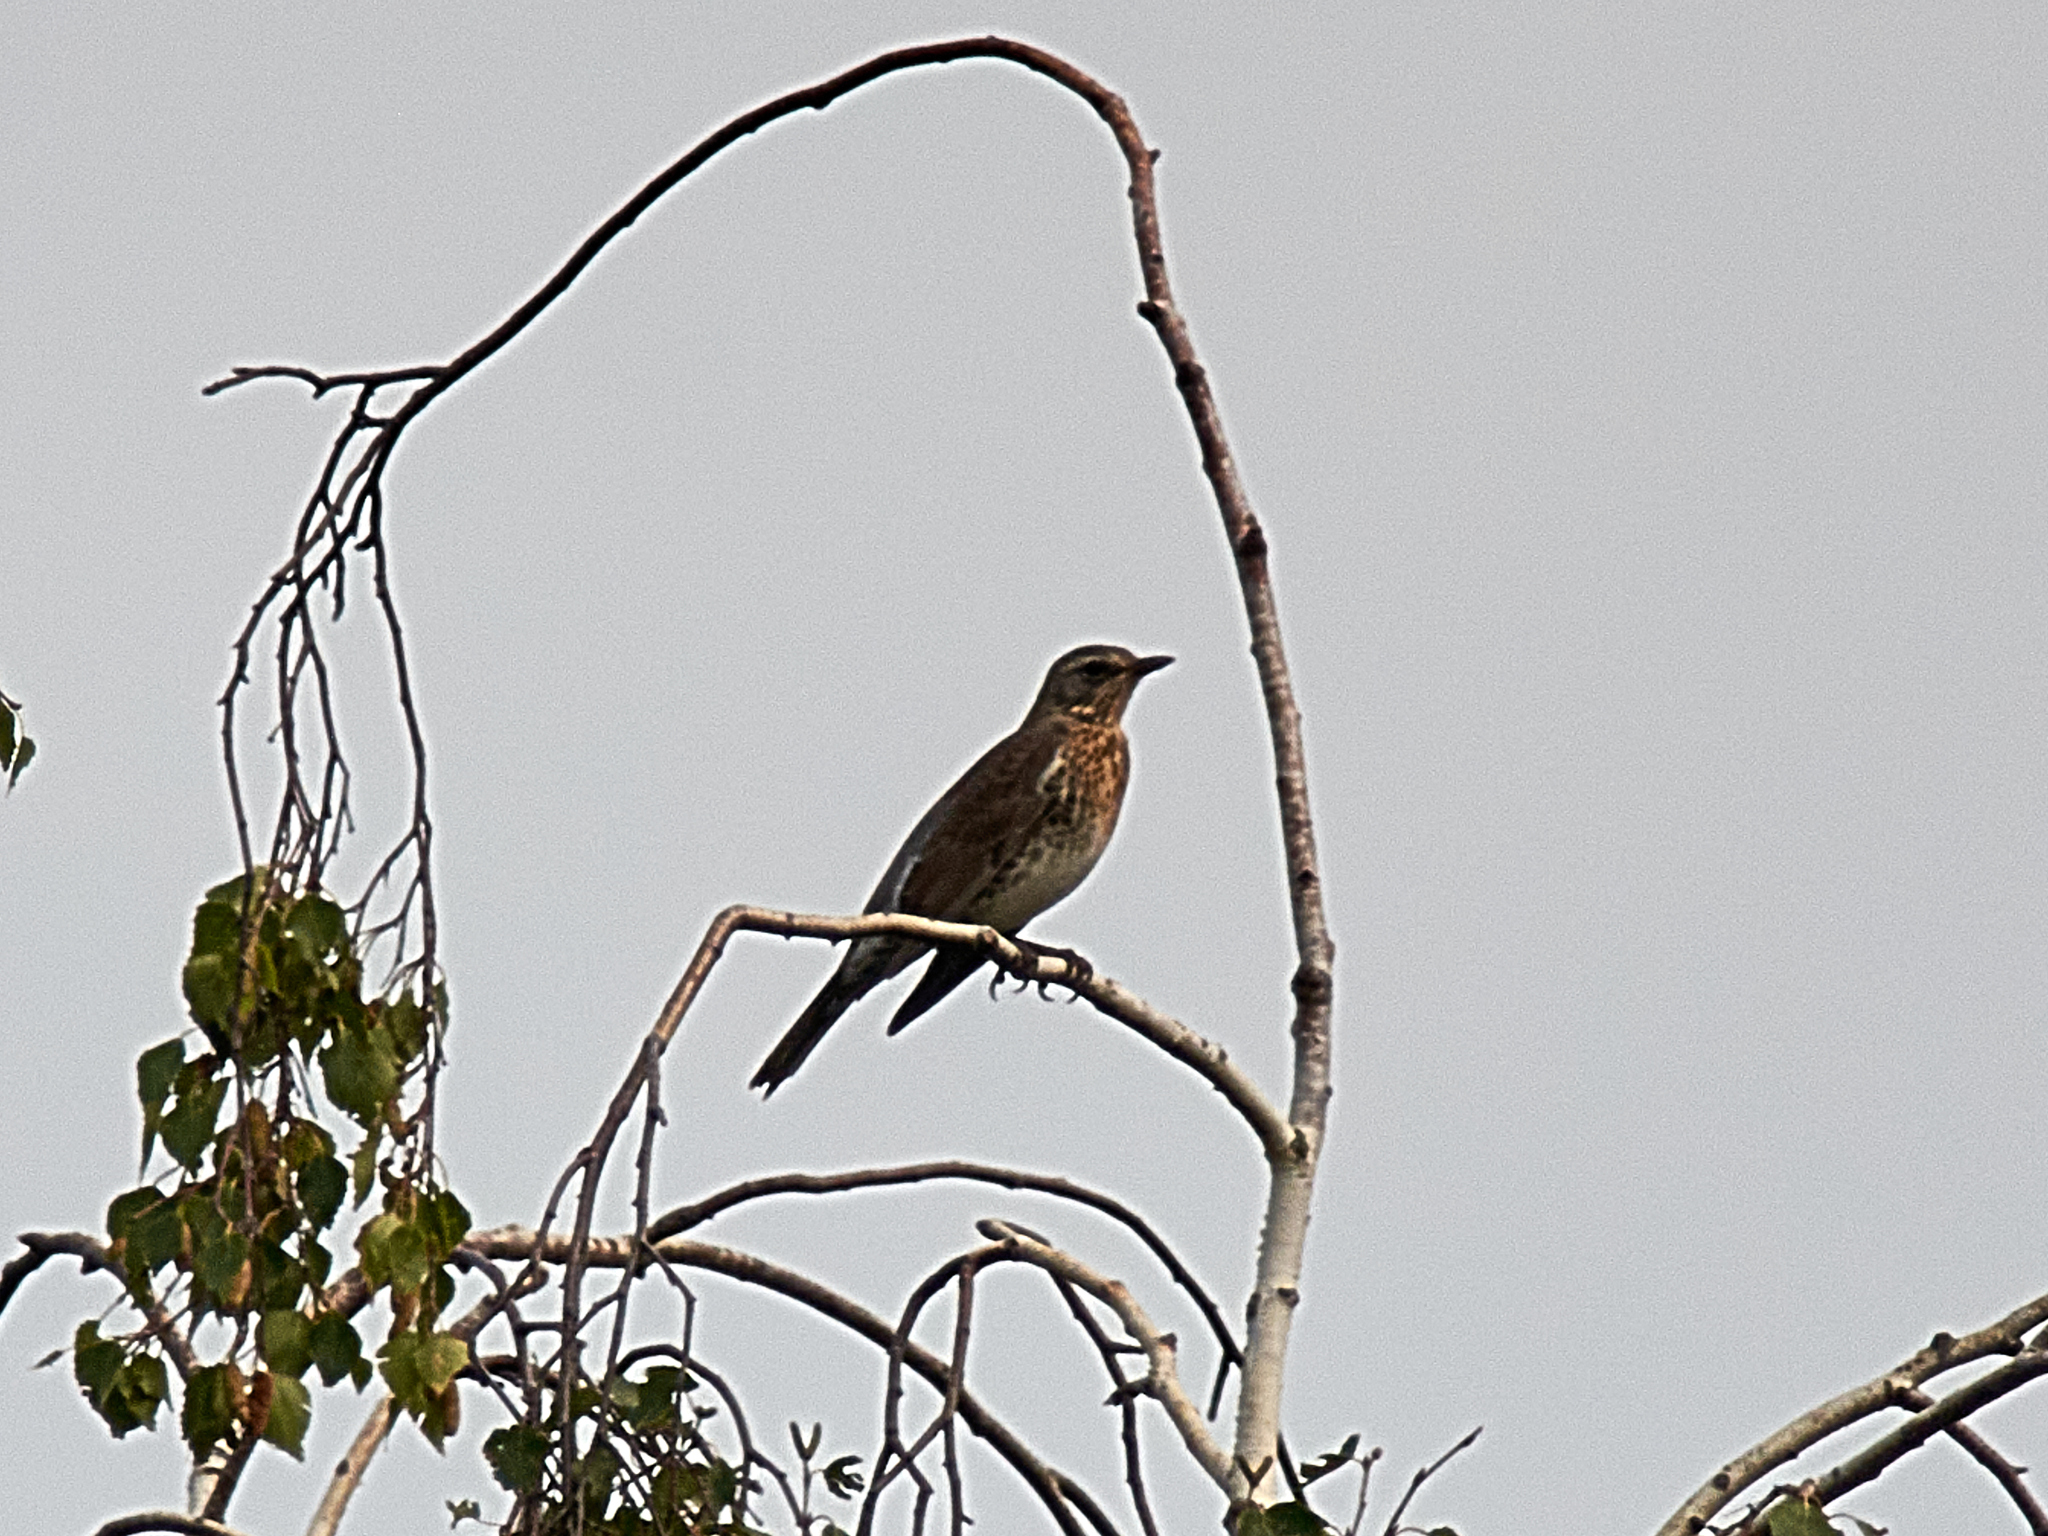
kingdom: Animalia
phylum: Chordata
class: Aves
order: Passeriformes
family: Turdidae
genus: Turdus
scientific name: Turdus pilaris
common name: Fieldfare
